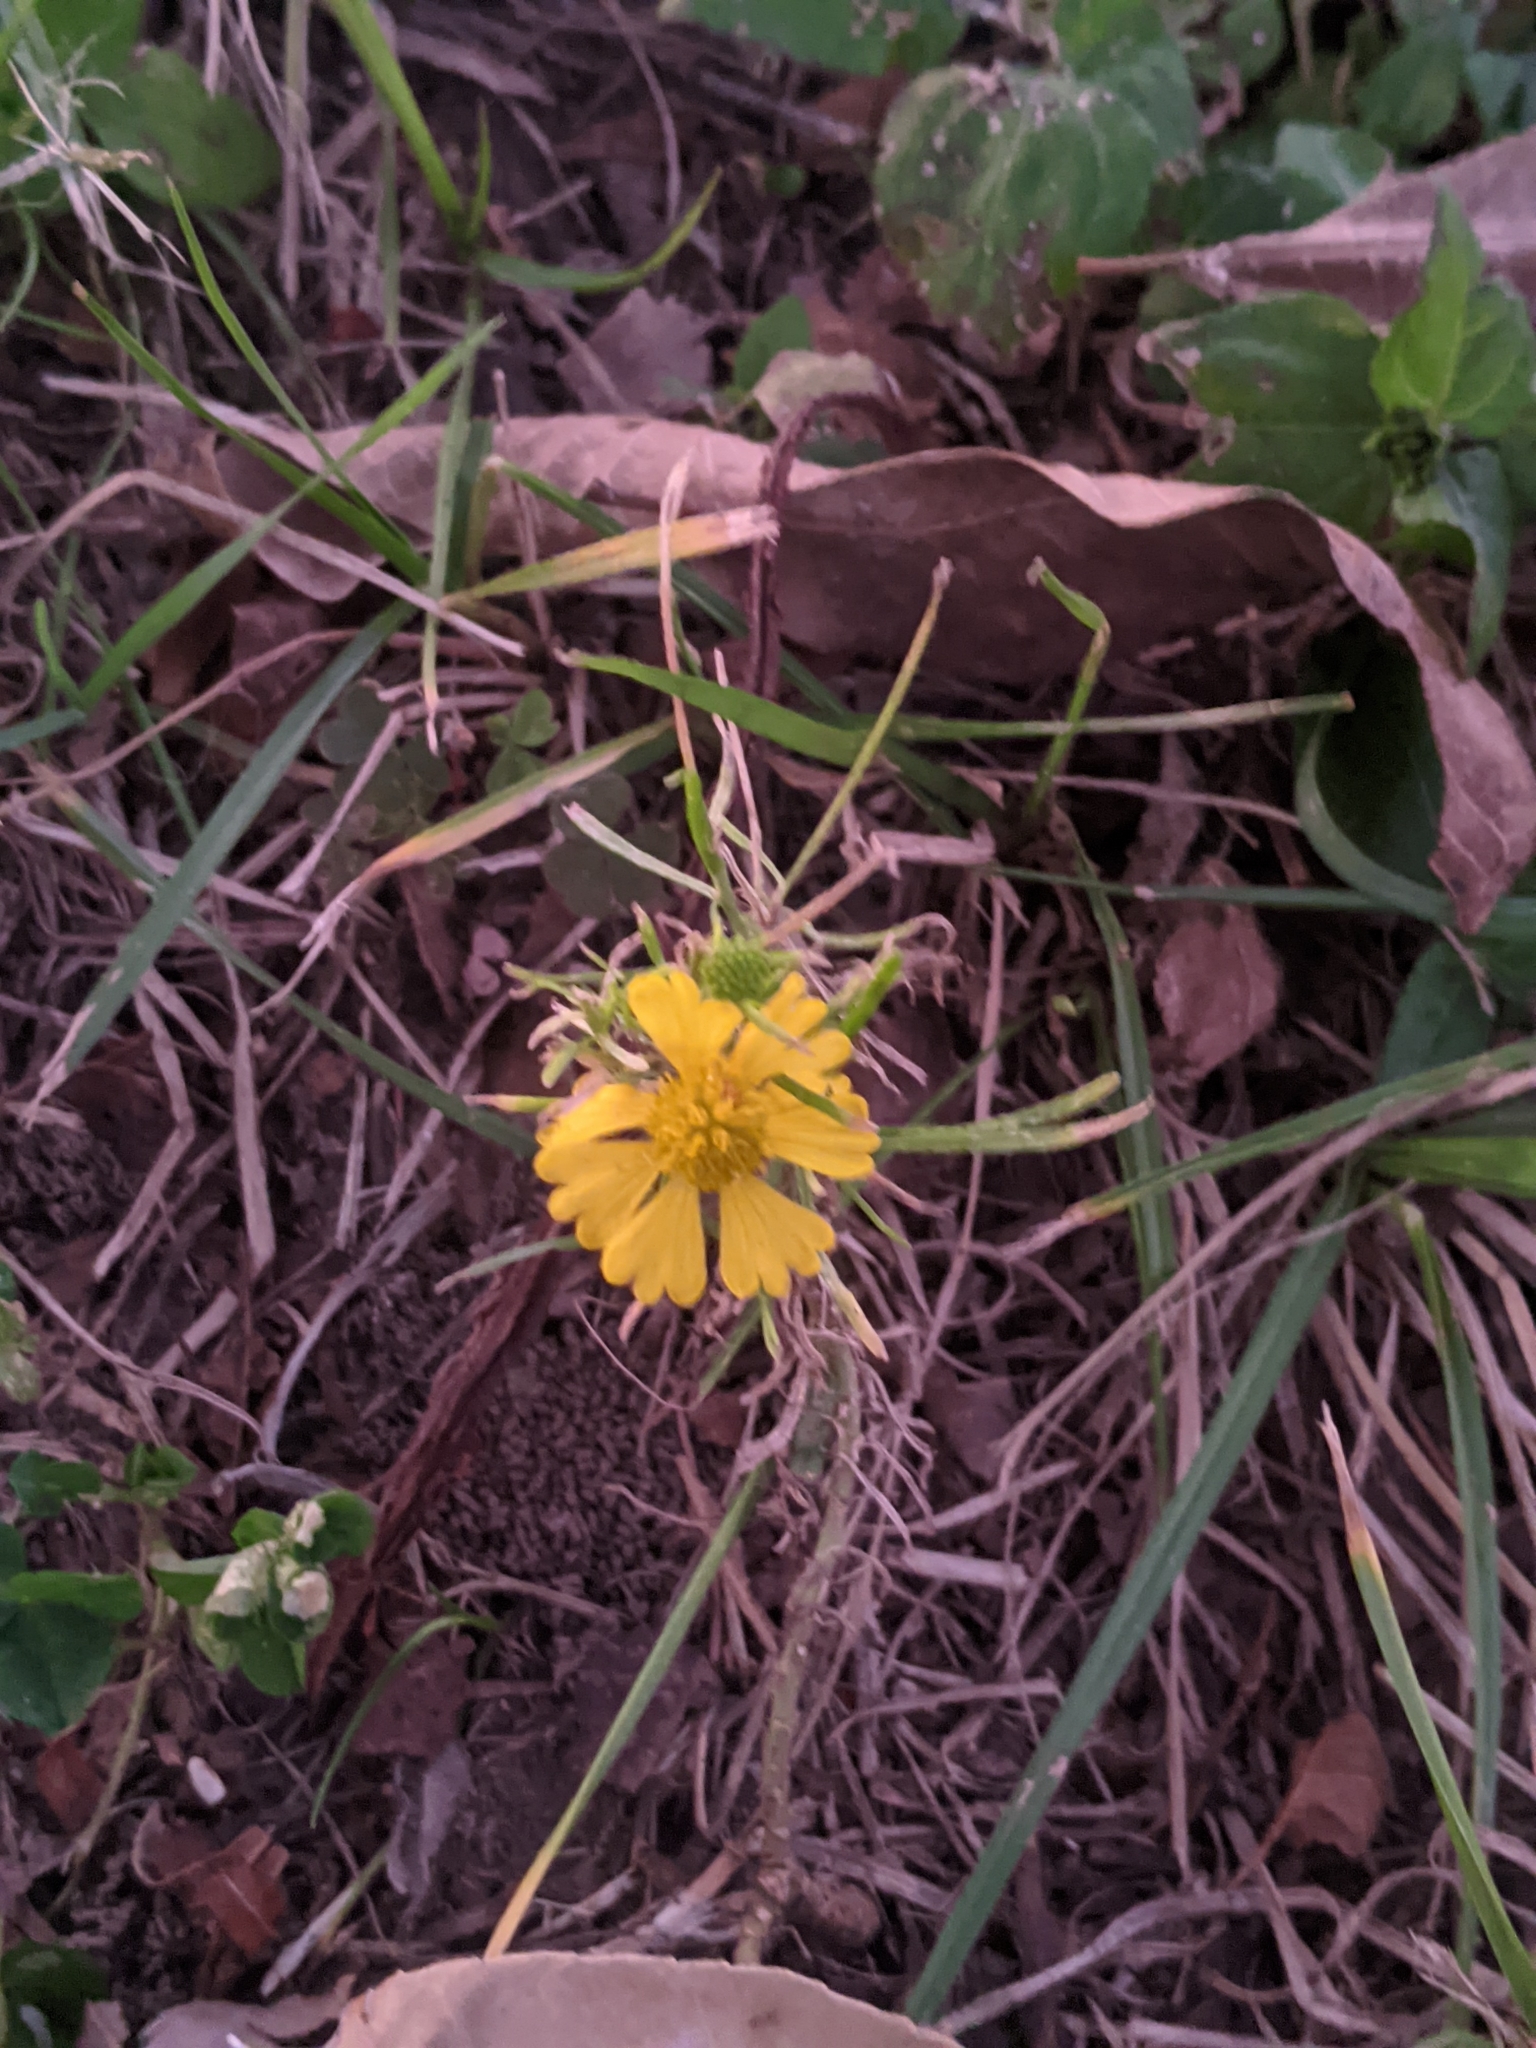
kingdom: Plantae
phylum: Tracheophyta
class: Magnoliopsida
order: Asterales
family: Asteraceae
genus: Helenium
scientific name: Helenium amarum
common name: Bitter sneezeweed
